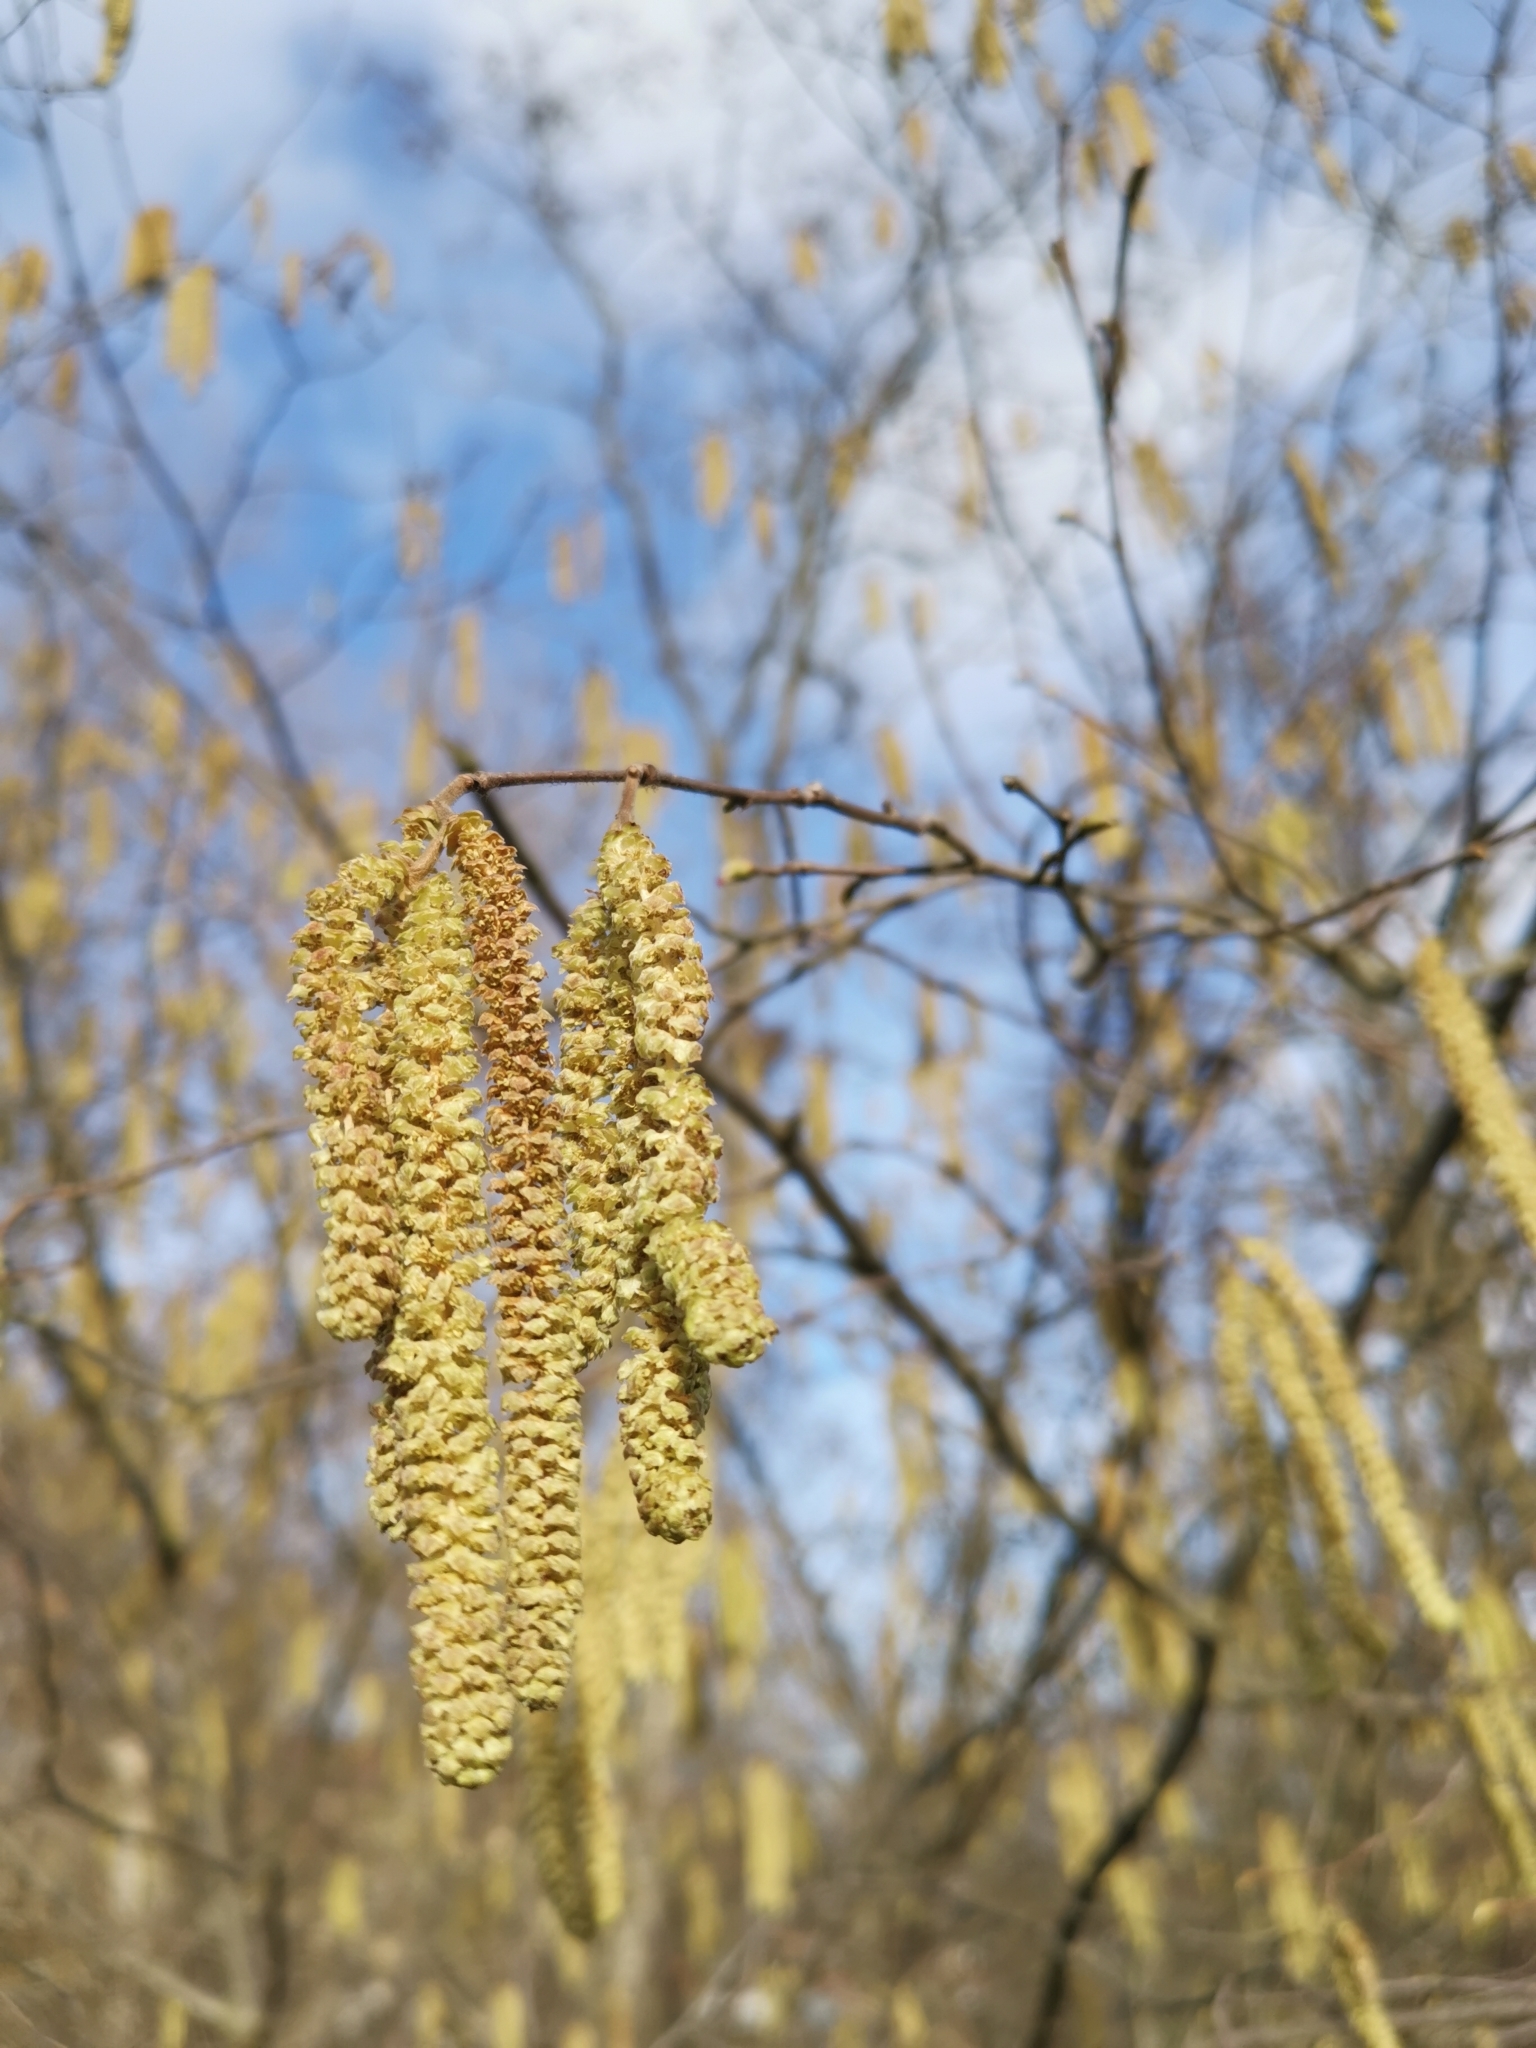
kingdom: Plantae
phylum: Tracheophyta
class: Magnoliopsida
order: Fagales
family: Betulaceae
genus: Corylus
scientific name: Corylus avellana
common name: European hazel
